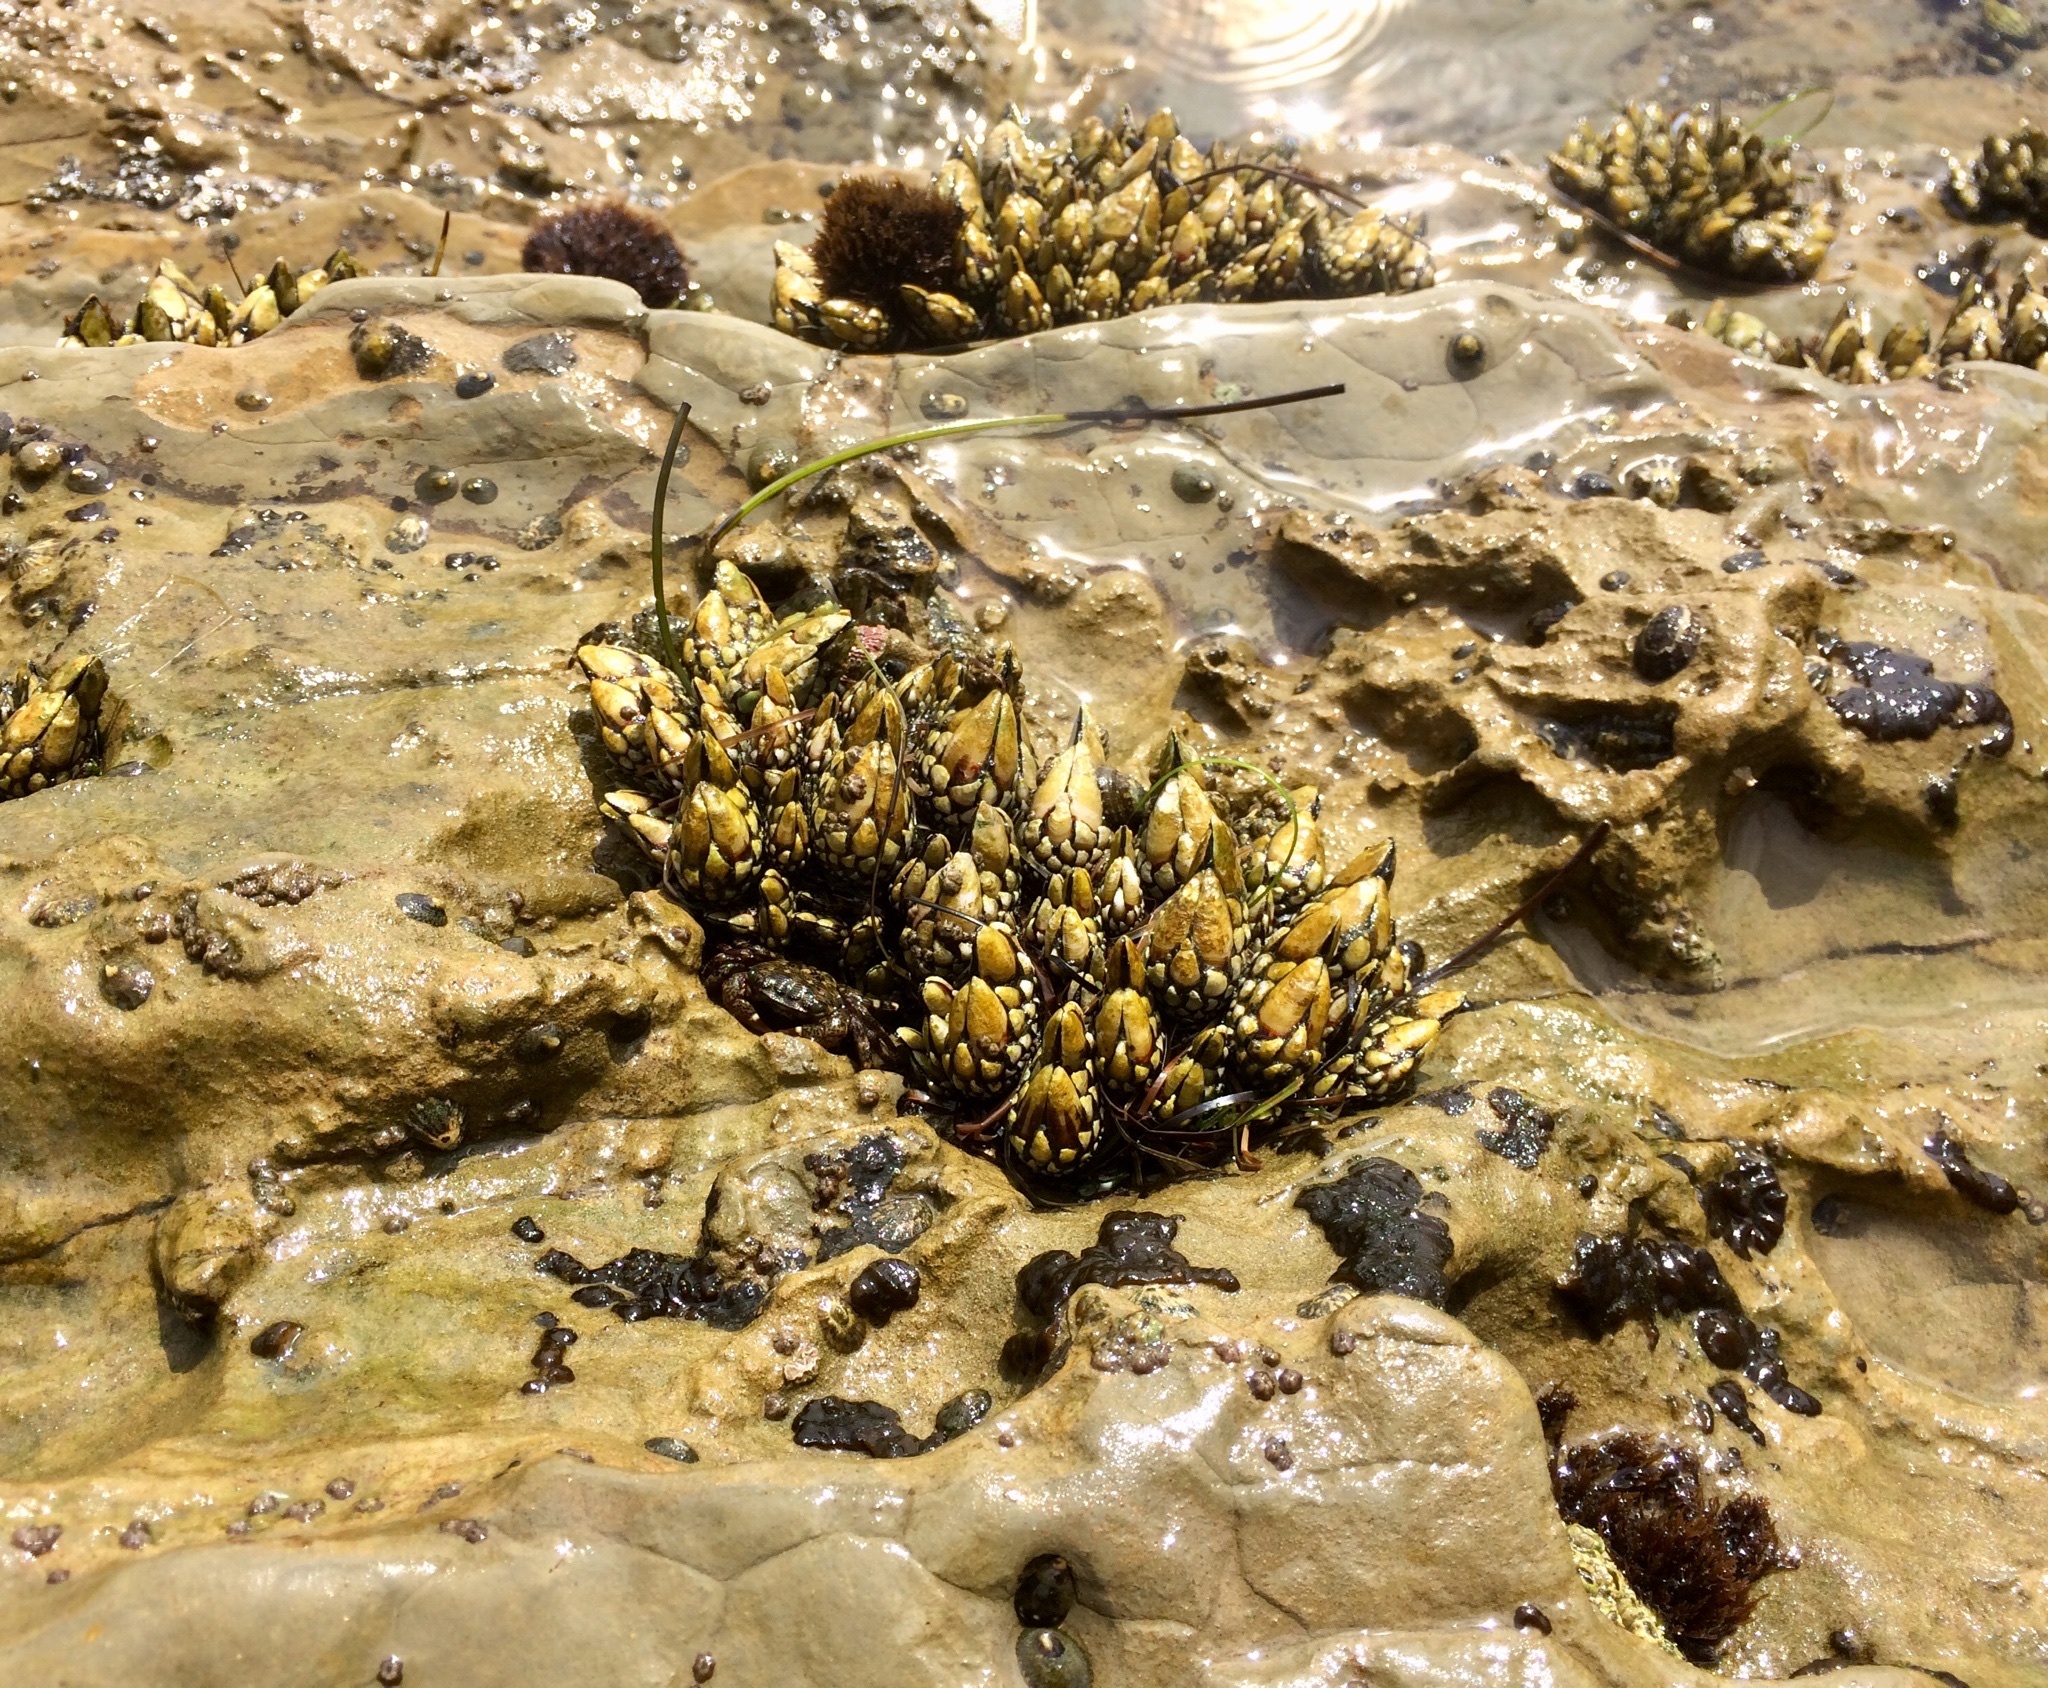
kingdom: Animalia
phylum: Arthropoda
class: Maxillopoda
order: Pedunculata
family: Pollicipedidae
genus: Pollicipes
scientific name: Pollicipes polymerus
